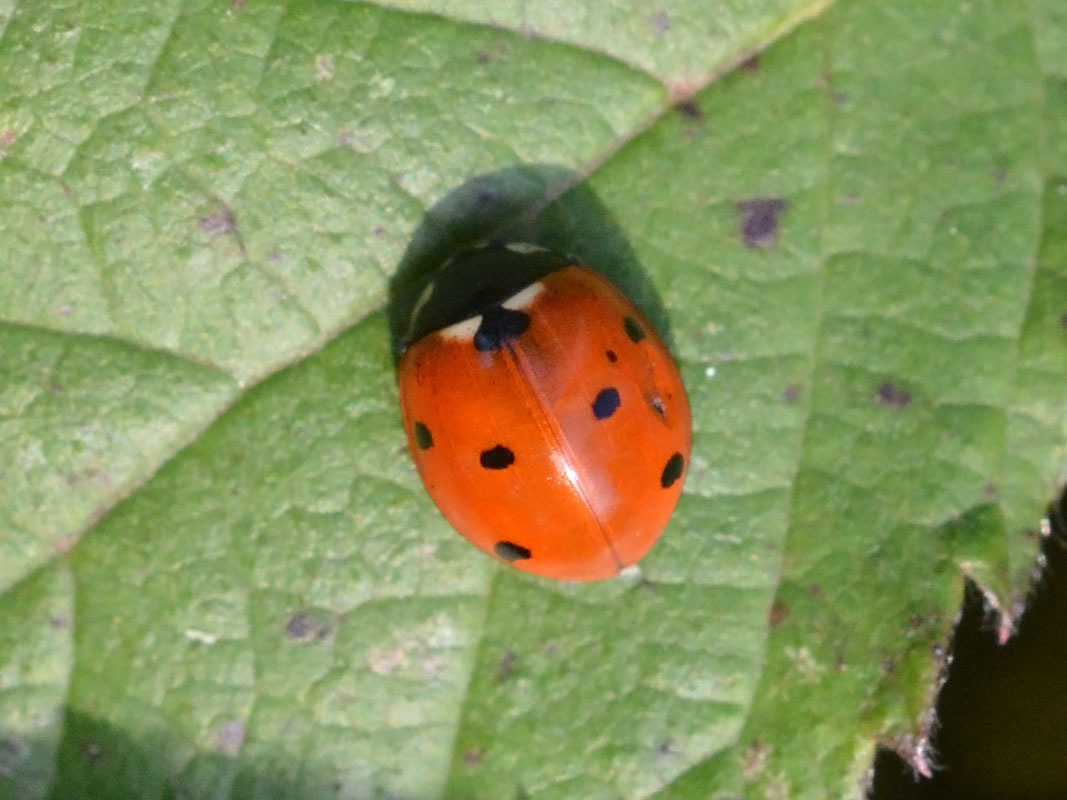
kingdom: Animalia
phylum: Arthropoda
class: Insecta
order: Coleoptera
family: Coccinellidae
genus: Coccinella
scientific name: Coccinella septempunctata
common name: Sevenspotted lady beetle
